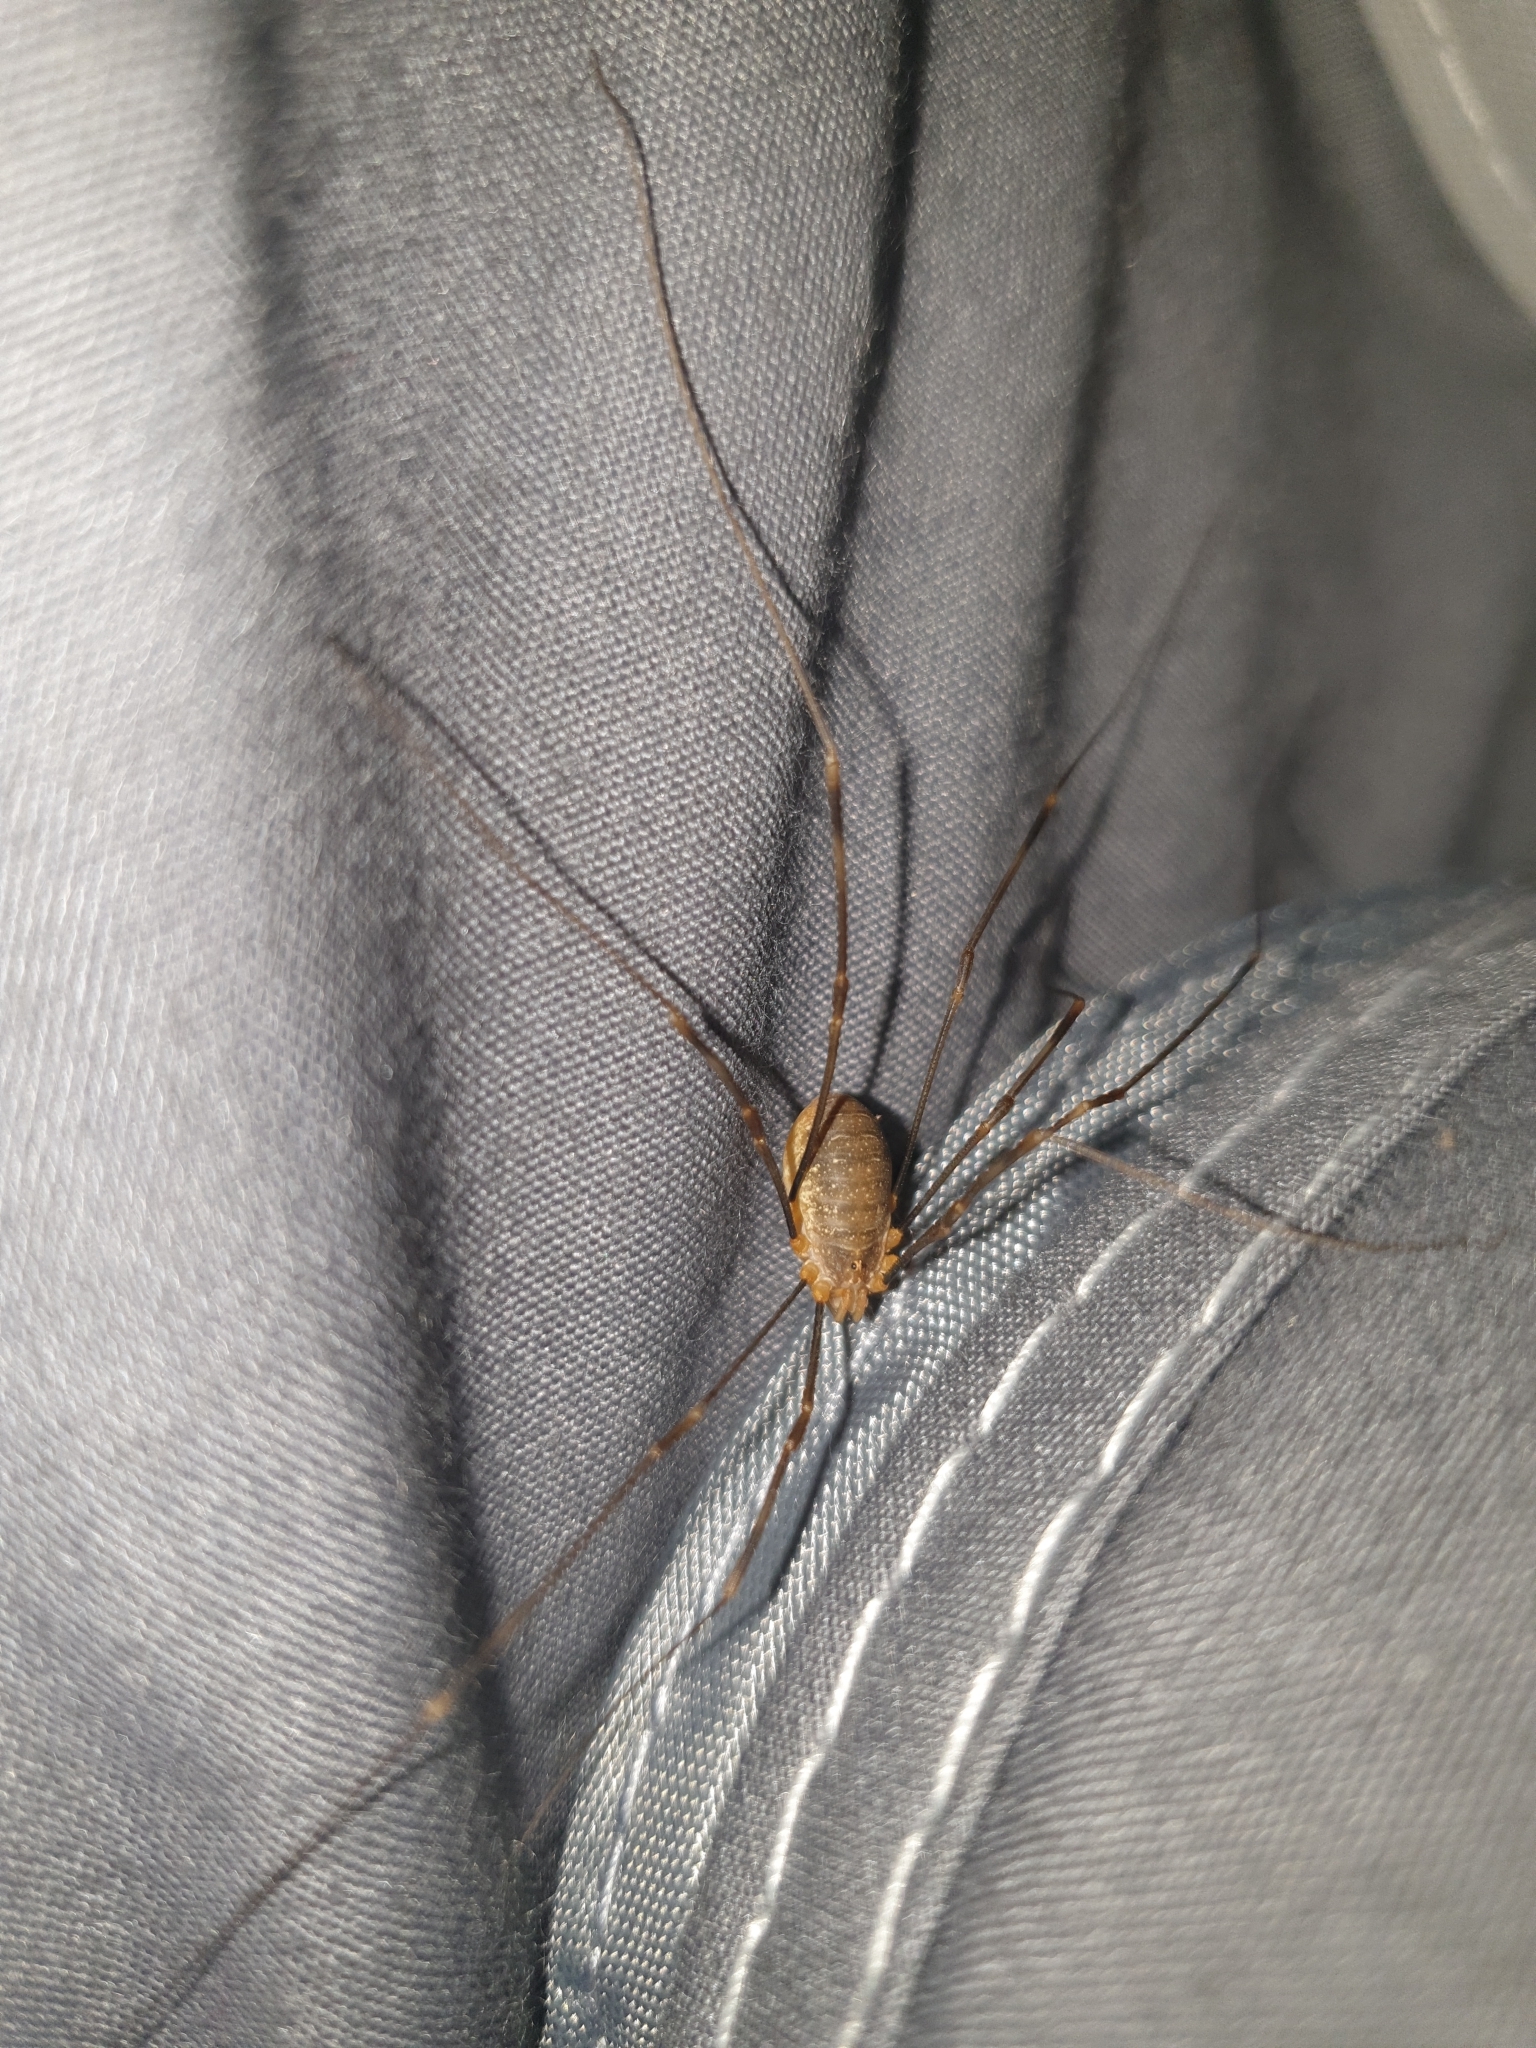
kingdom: Animalia
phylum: Arthropoda
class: Arachnida
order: Opiliones
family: Phalangiidae
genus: Opilio
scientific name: Opilio canestrinii
